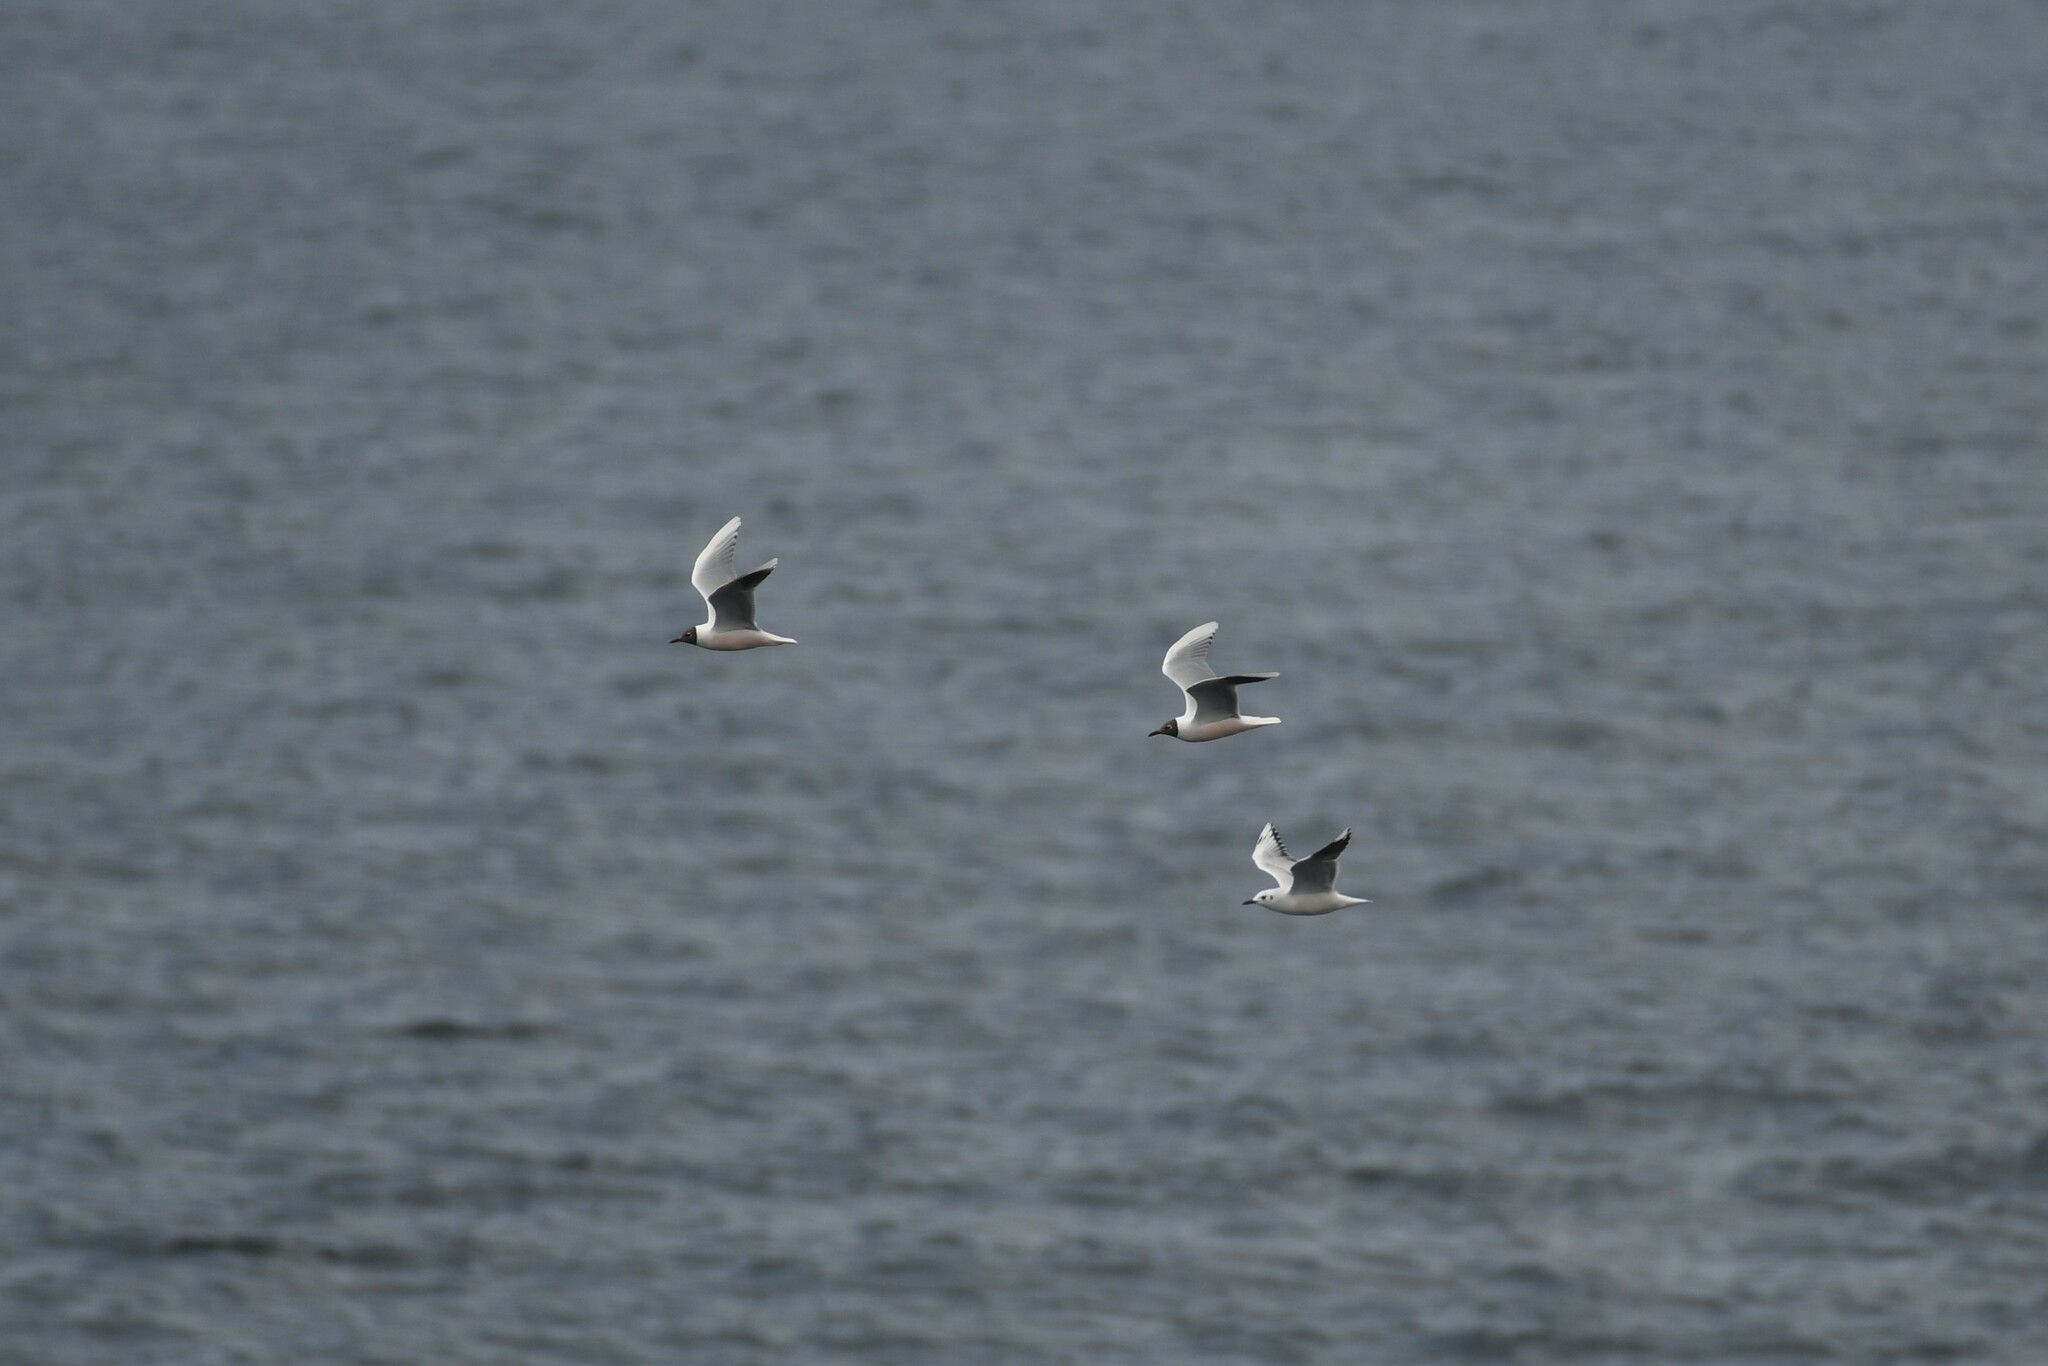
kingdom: Animalia
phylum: Chordata
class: Aves
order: Charadriiformes
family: Laridae
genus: Chroicocephalus
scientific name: Chroicocephalus maculipennis
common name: Brown-hooded gull
